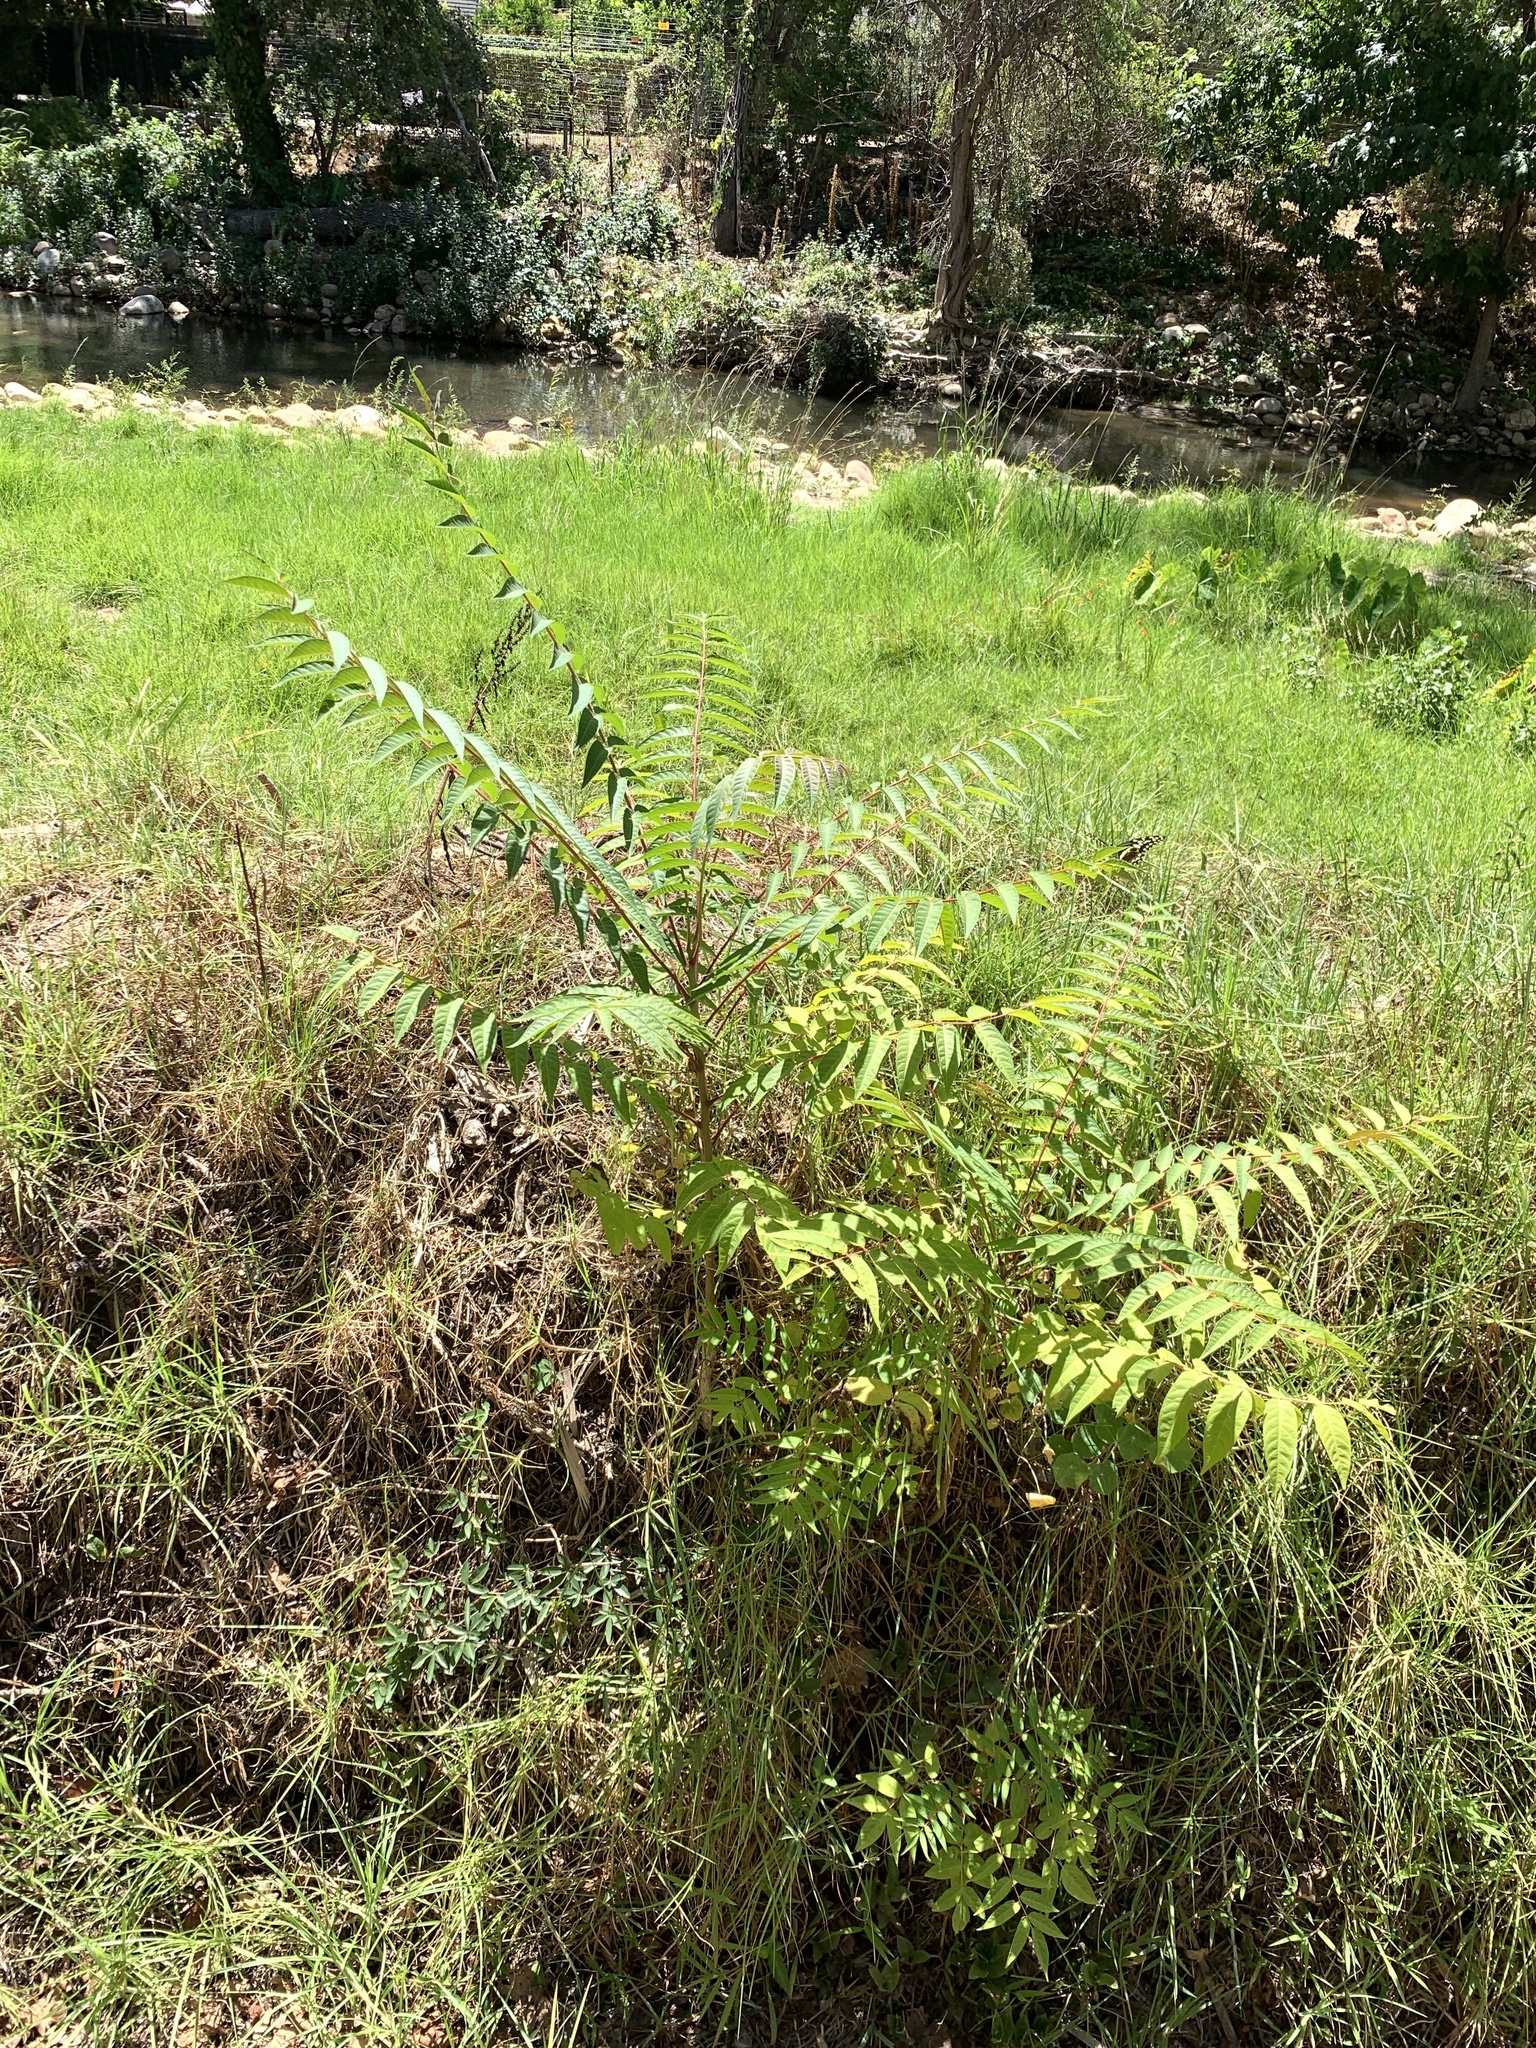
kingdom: Plantae
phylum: Tracheophyta
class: Magnoliopsida
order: Sapindales
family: Simaroubaceae
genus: Ailanthus
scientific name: Ailanthus altissima
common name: Tree-of-heaven
